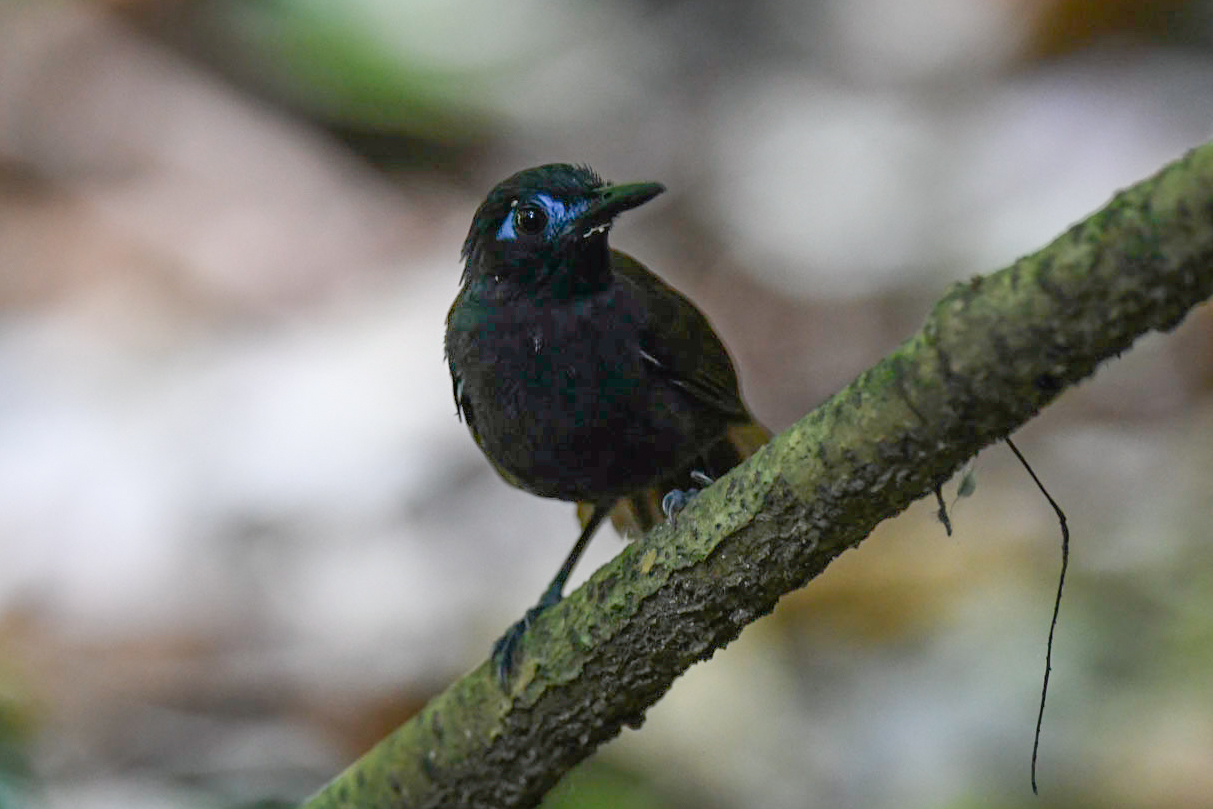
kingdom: Animalia
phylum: Chordata
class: Aves
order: Passeriformes
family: Thamnophilidae
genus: Myrmeciza
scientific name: Myrmeciza exsul
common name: Chestnut-backed antbird
